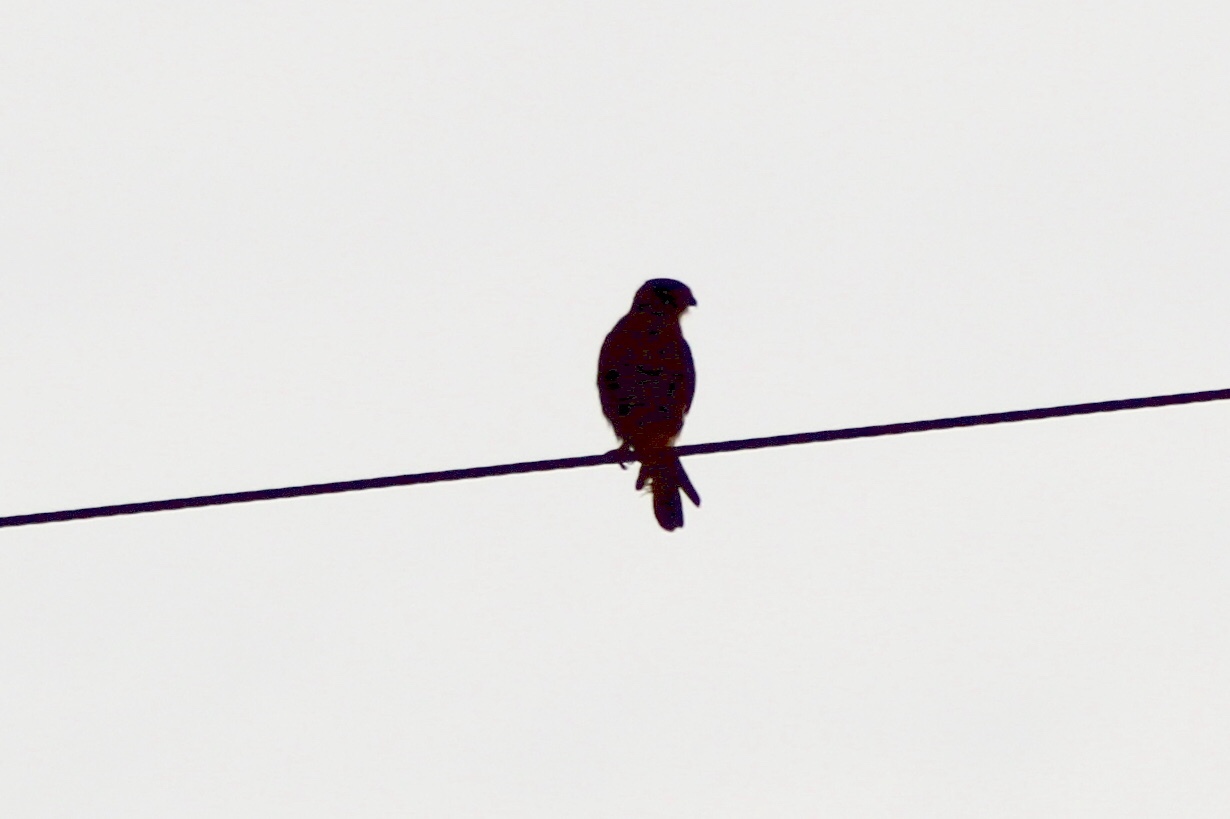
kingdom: Animalia
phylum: Chordata
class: Aves
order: Falconiformes
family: Falconidae
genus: Falco
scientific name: Falco sparverius
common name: American kestrel
